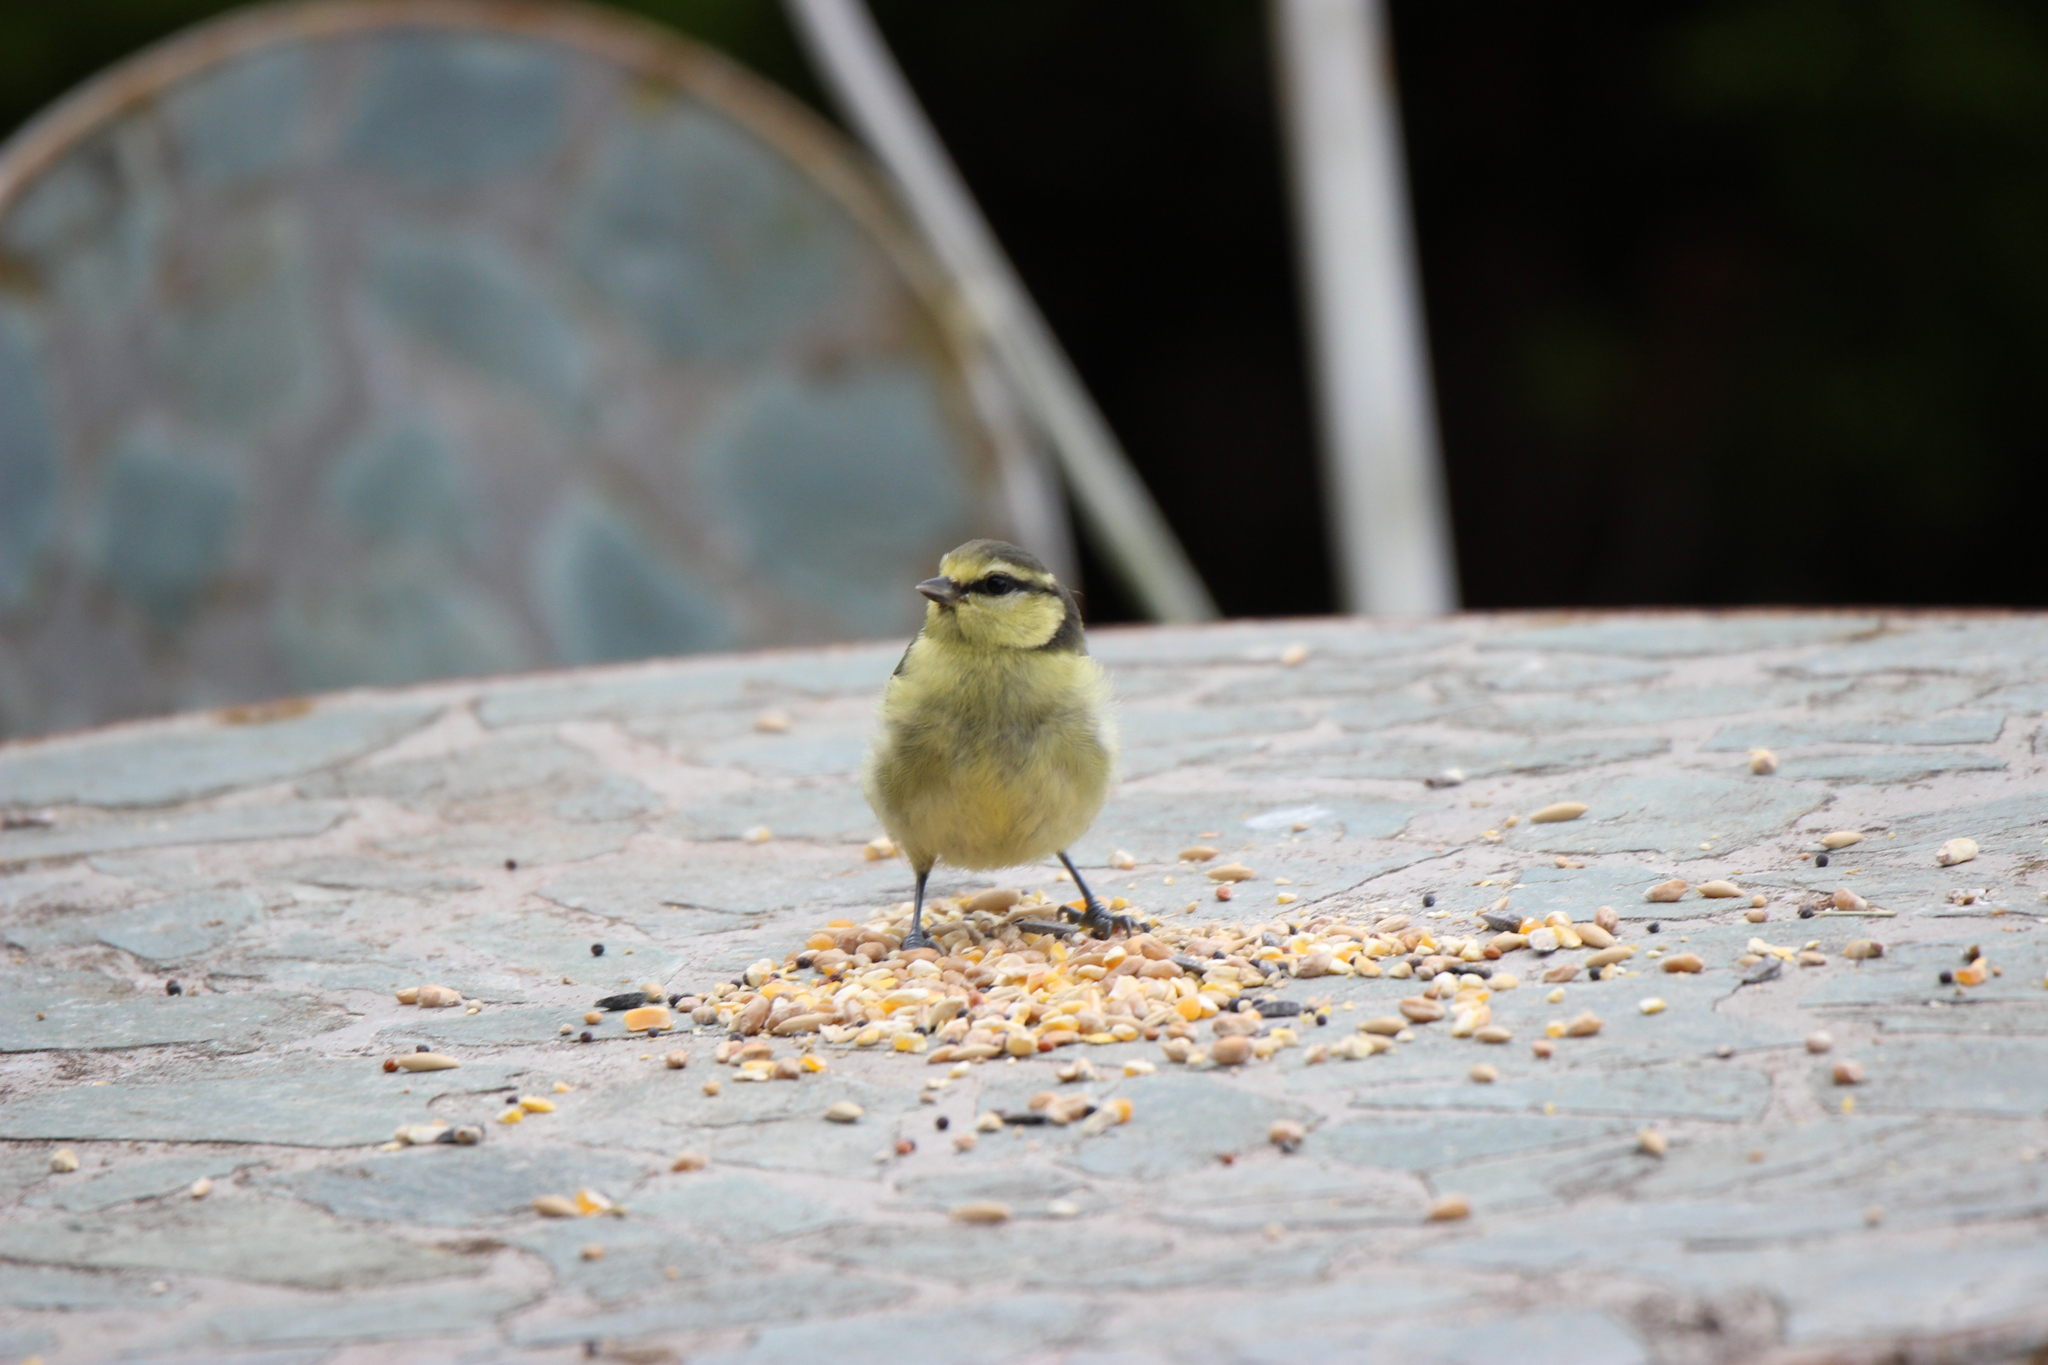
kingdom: Animalia
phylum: Chordata
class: Aves
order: Passeriformes
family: Paridae
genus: Cyanistes
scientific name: Cyanistes caeruleus
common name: Eurasian blue tit
